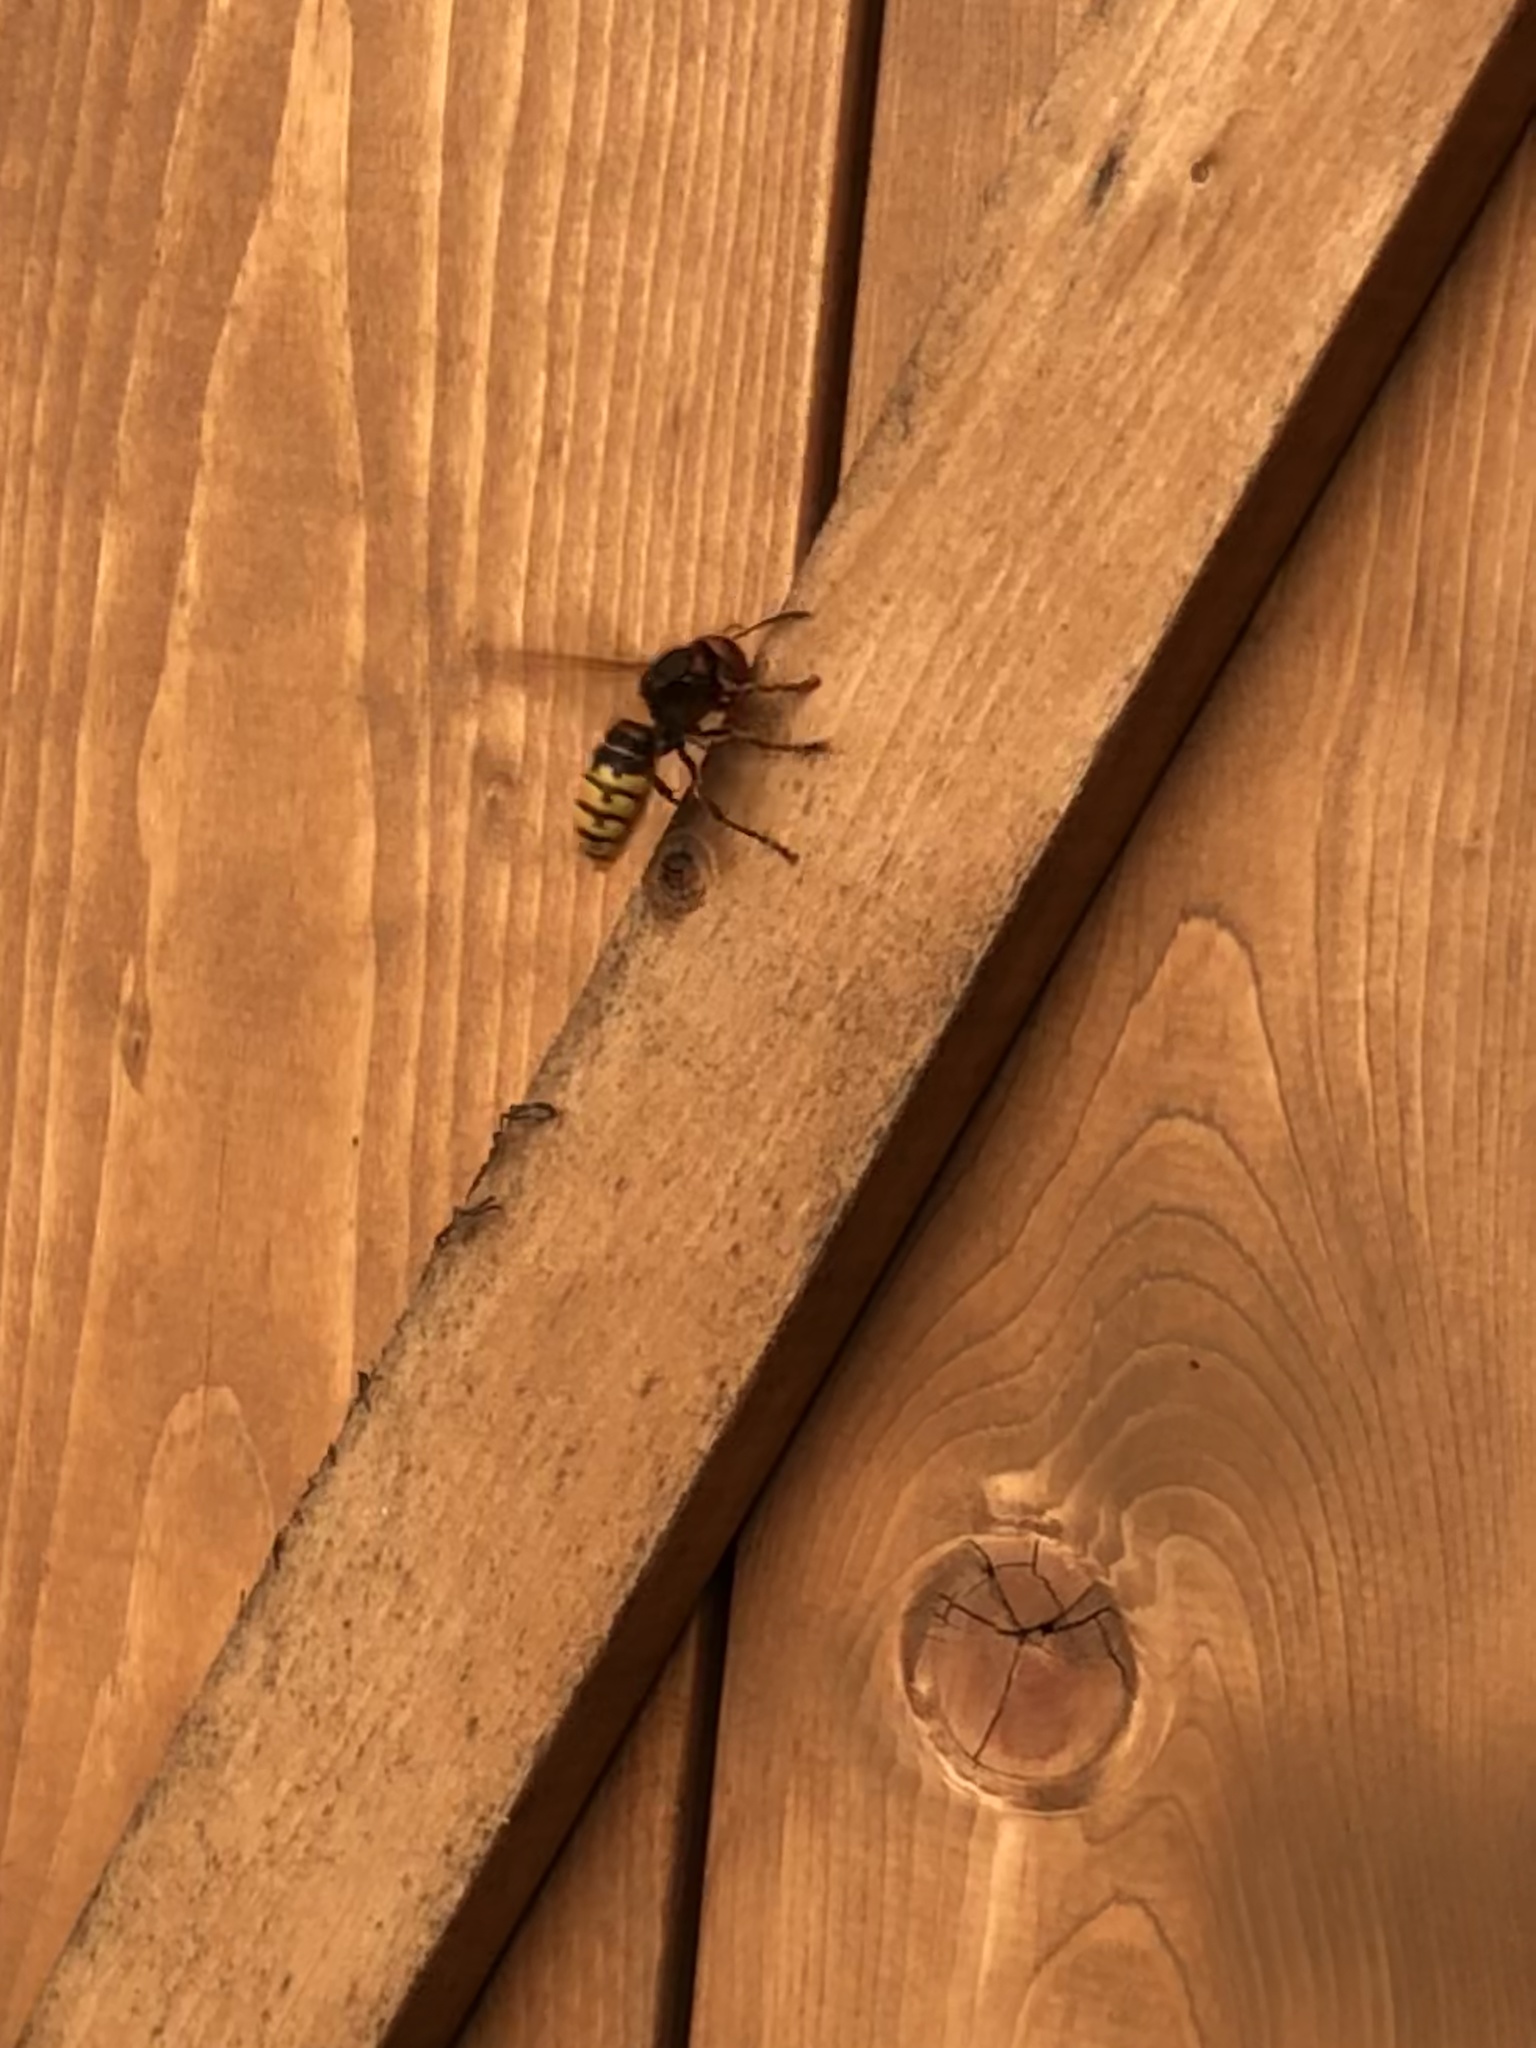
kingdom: Animalia
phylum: Arthropoda
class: Insecta
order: Hymenoptera
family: Vespidae
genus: Vespa
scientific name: Vespa crabro
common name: Hornet
